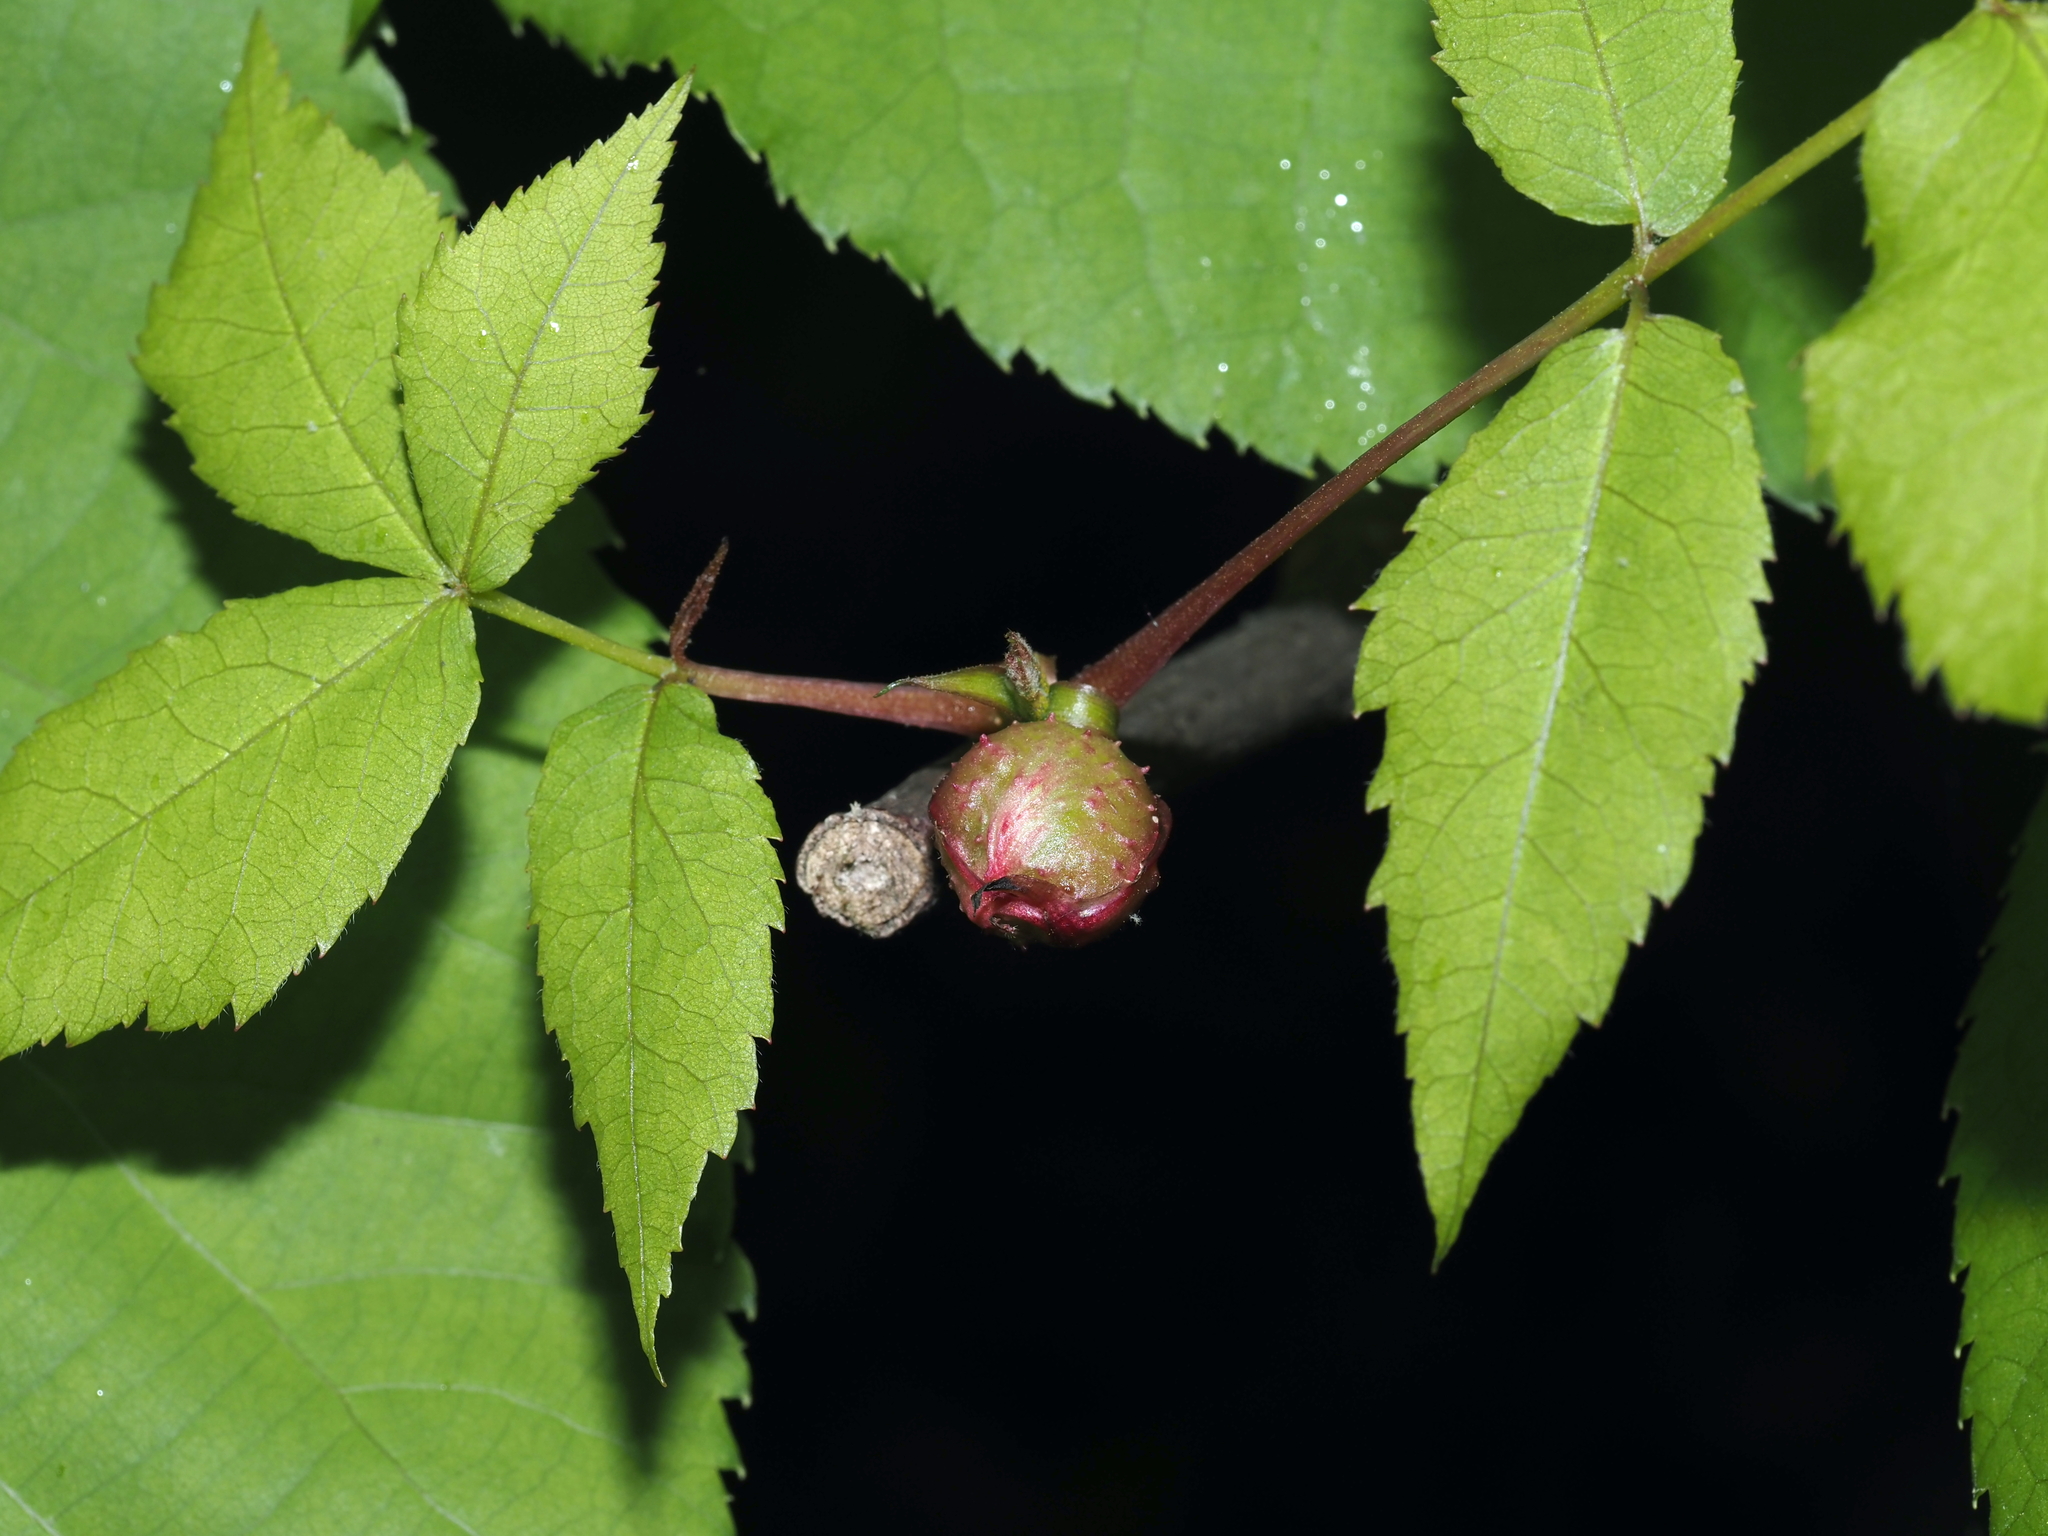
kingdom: Animalia
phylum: Arthropoda
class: Insecta
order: Hemiptera
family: Phylloxeridae
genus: Phylloxera
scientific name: Phylloxera spinosa
